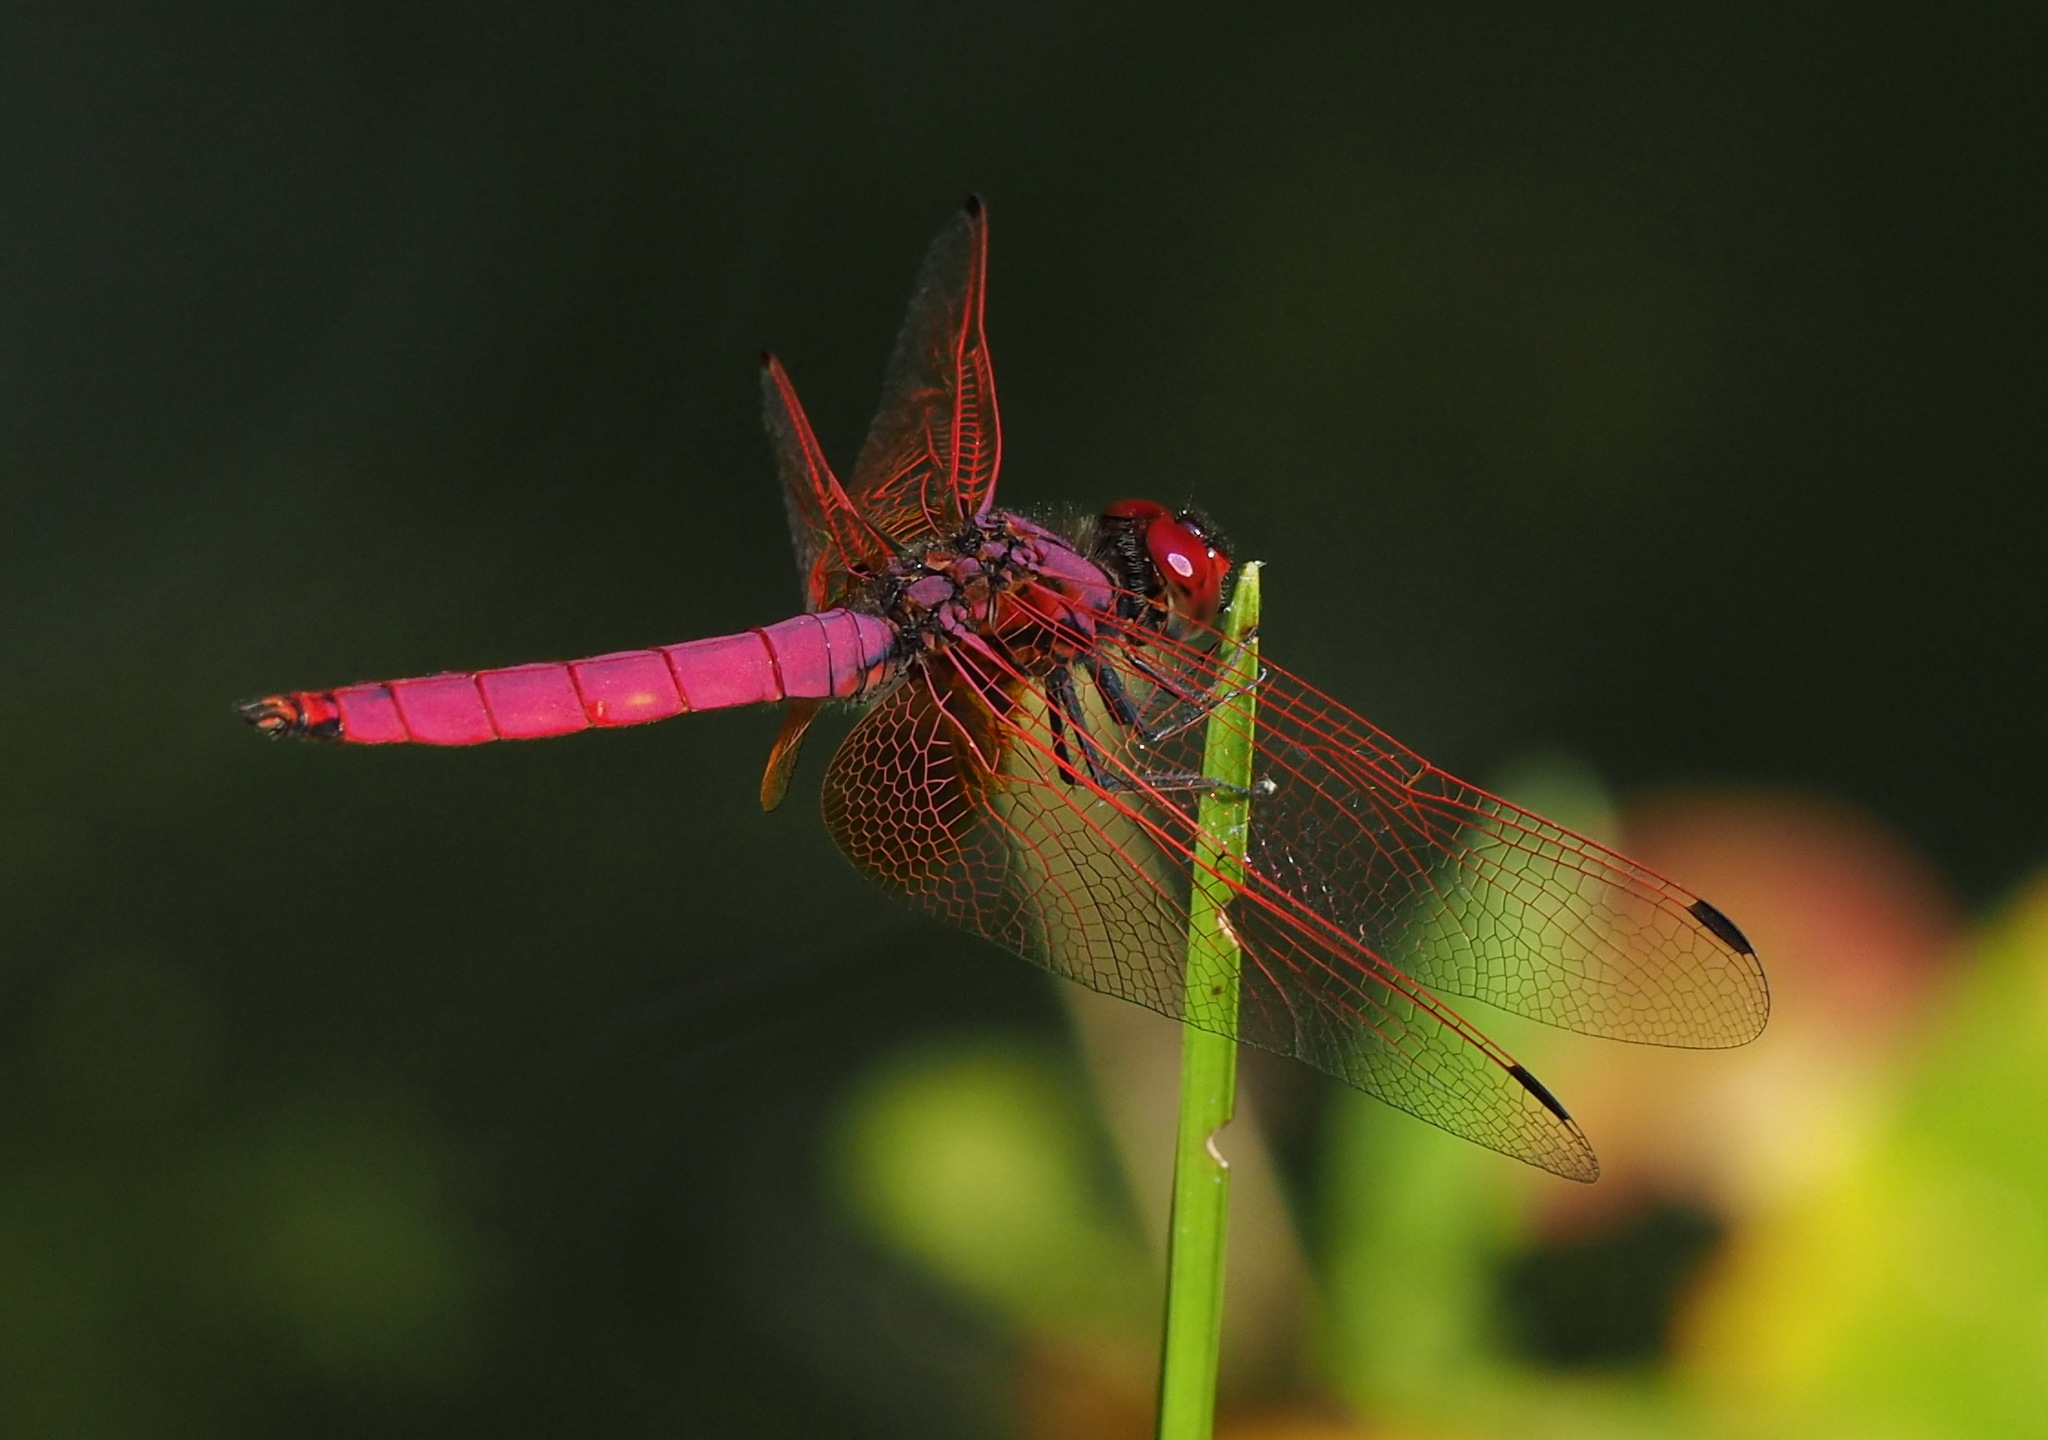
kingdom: Animalia
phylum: Arthropoda
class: Insecta
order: Odonata
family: Libellulidae
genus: Trithemis
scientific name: Trithemis aurora
